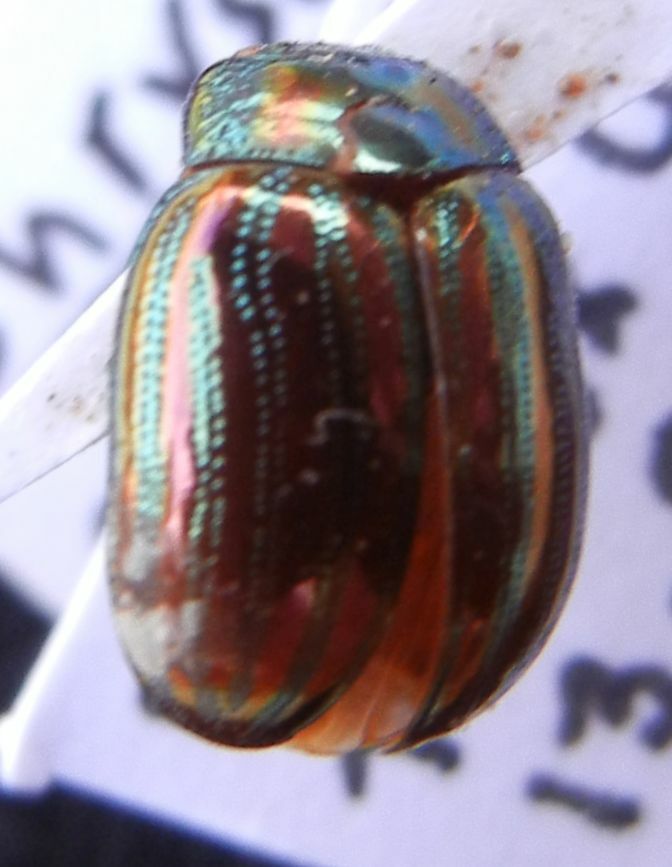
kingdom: Animalia
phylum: Arthropoda
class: Insecta
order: Coleoptera
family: Chrysomelidae
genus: Chrysolina
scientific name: Chrysolina americana
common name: Rosemary beetle
